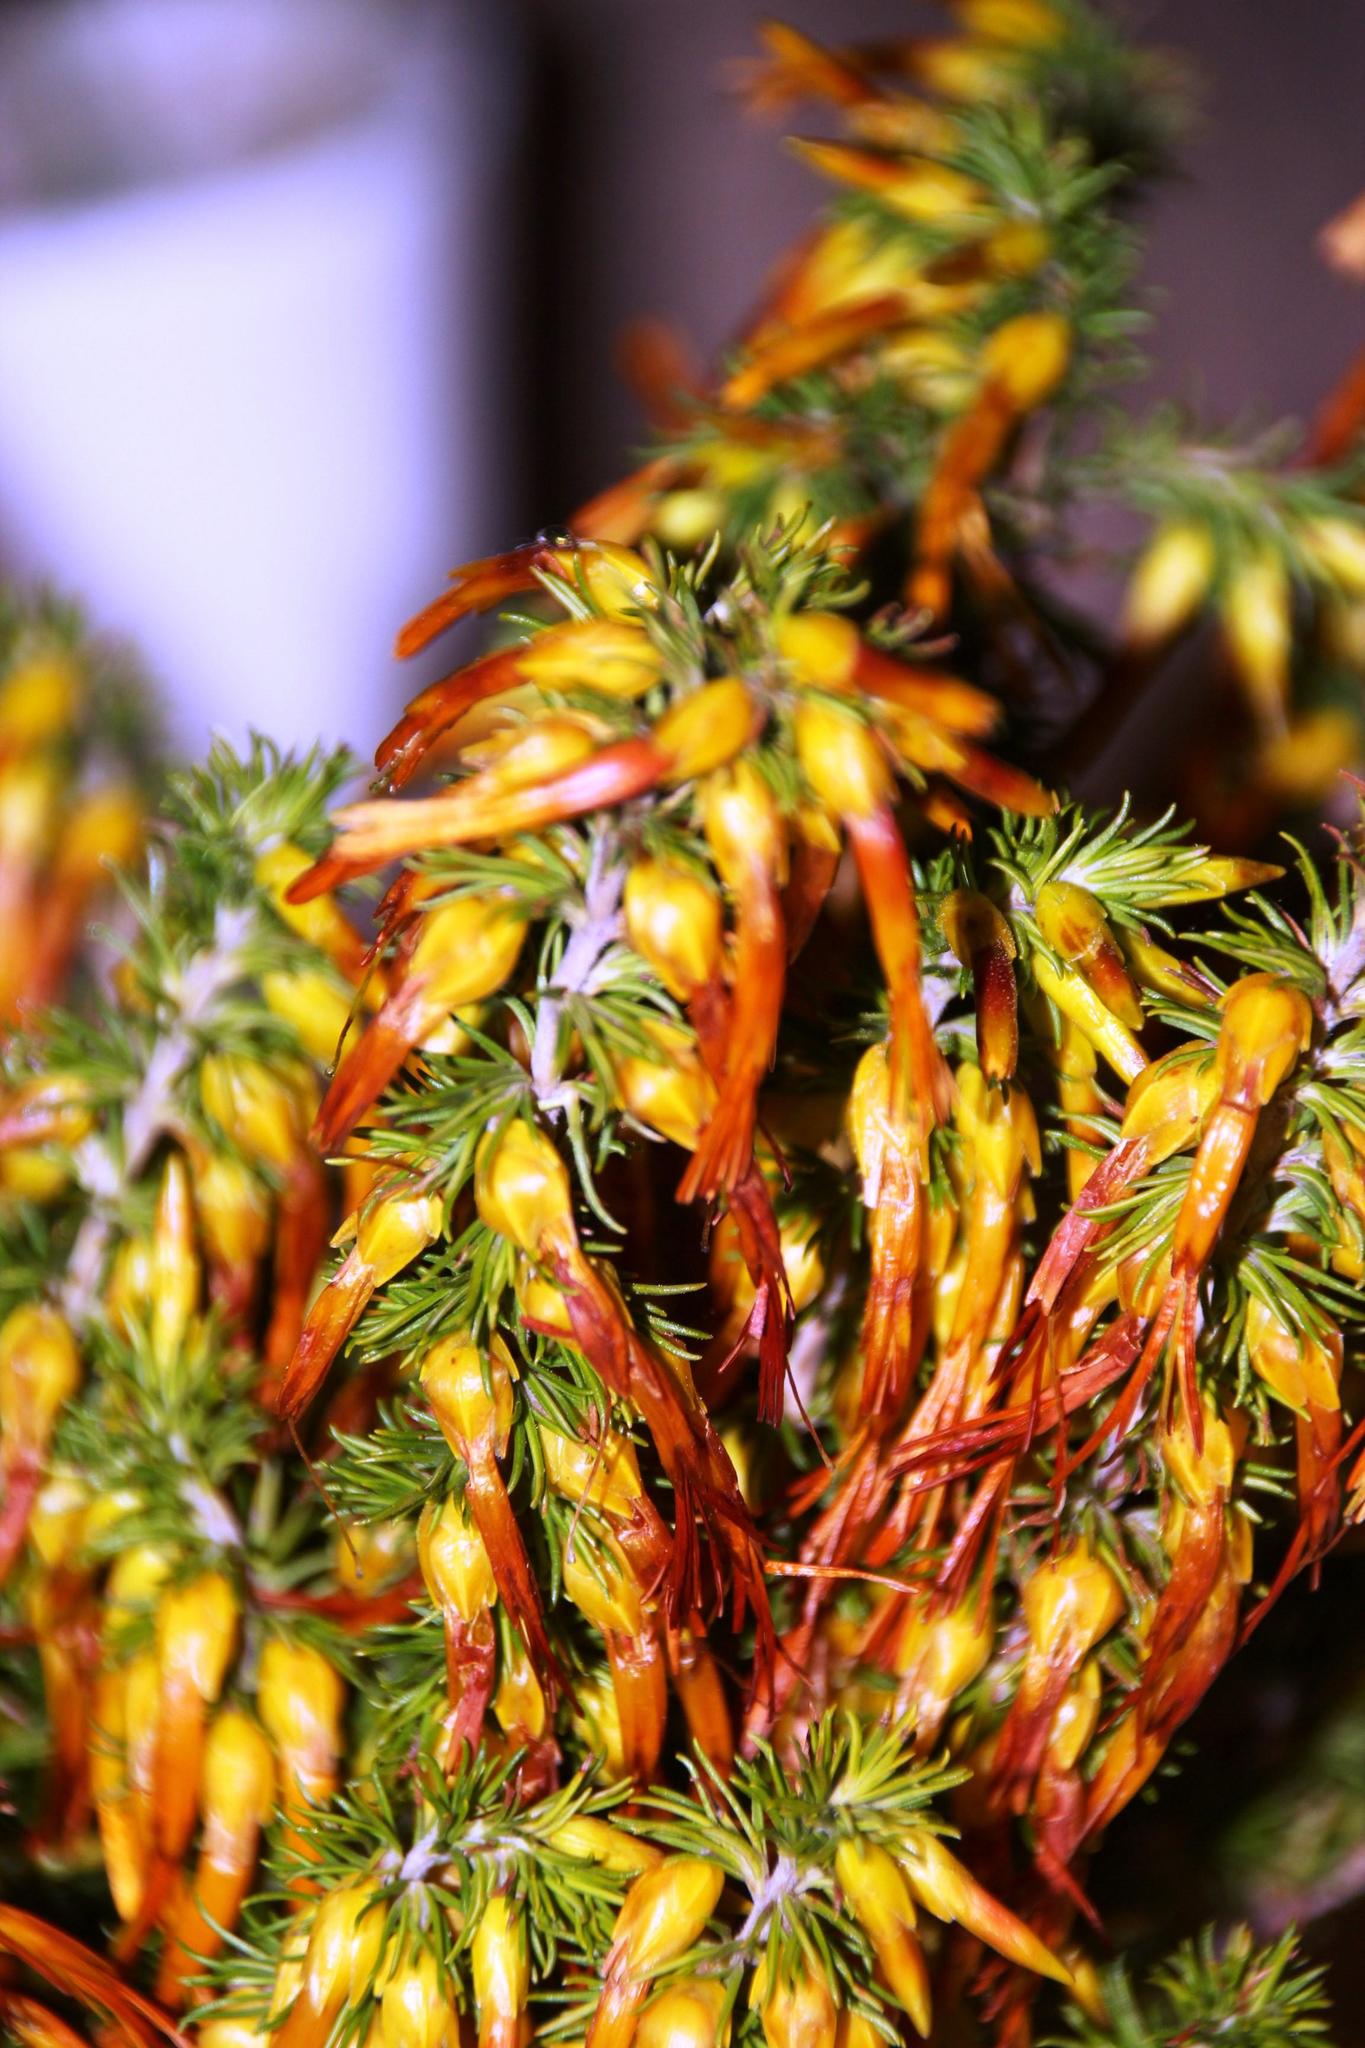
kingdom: Plantae
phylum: Tracheophyta
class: Magnoliopsida
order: Ericales
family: Ericaceae
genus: Erica
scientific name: Erica coccinea
